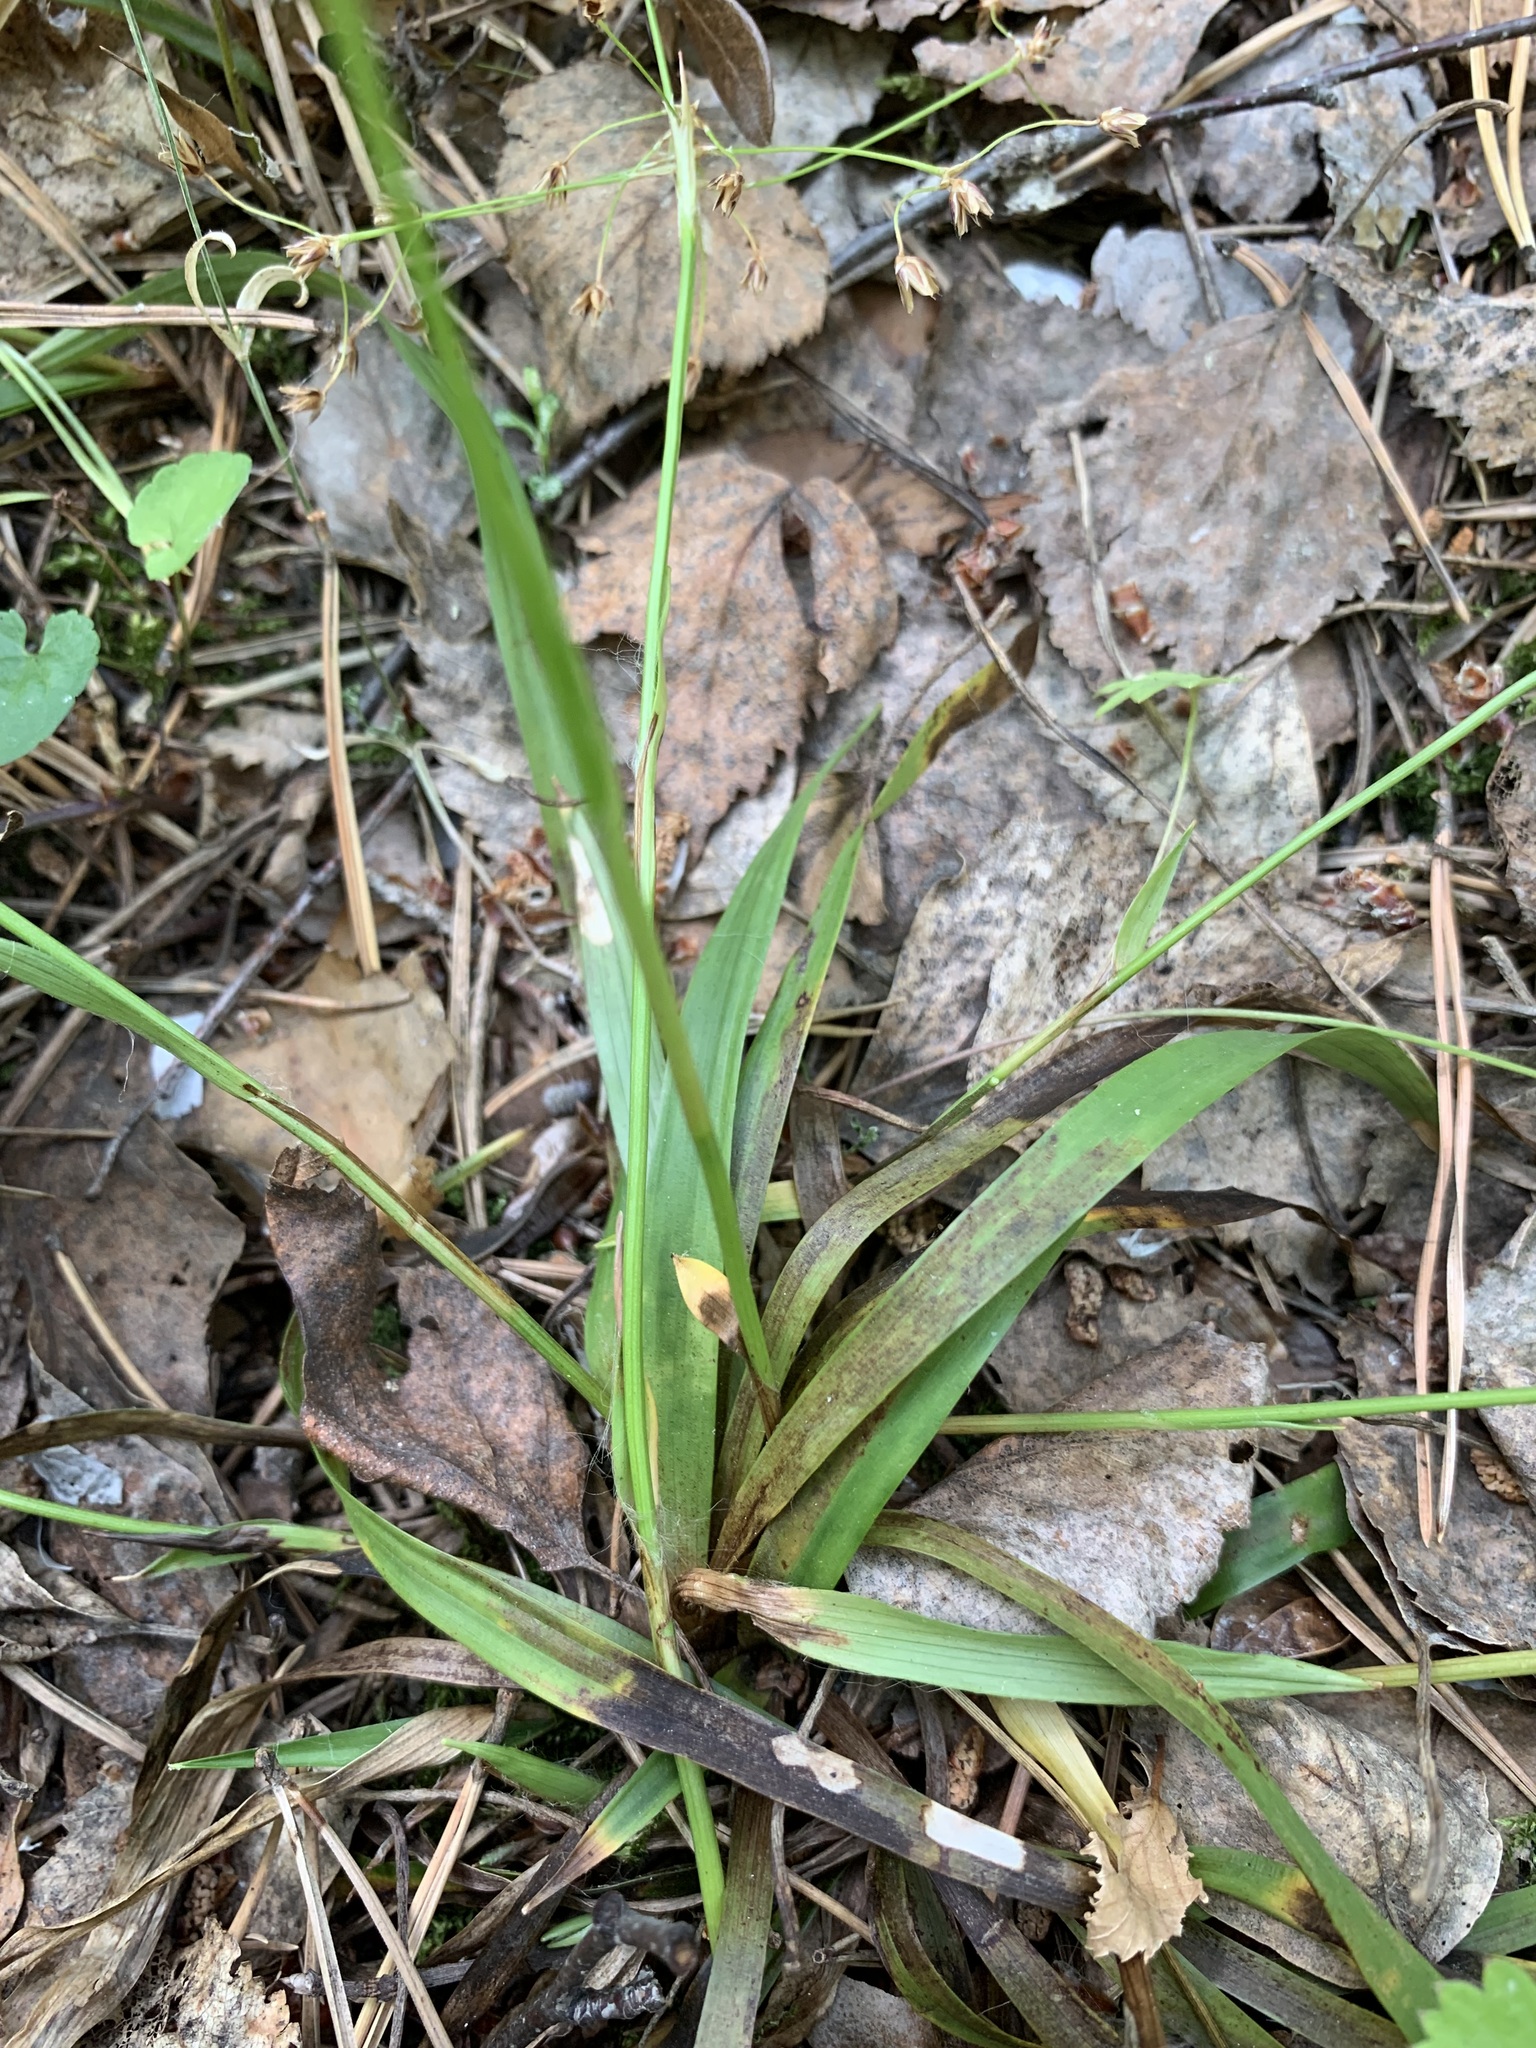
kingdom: Plantae
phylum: Tracheophyta
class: Liliopsida
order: Poales
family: Juncaceae
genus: Luzula
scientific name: Luzula pilosa
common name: Hairy wood-rush
